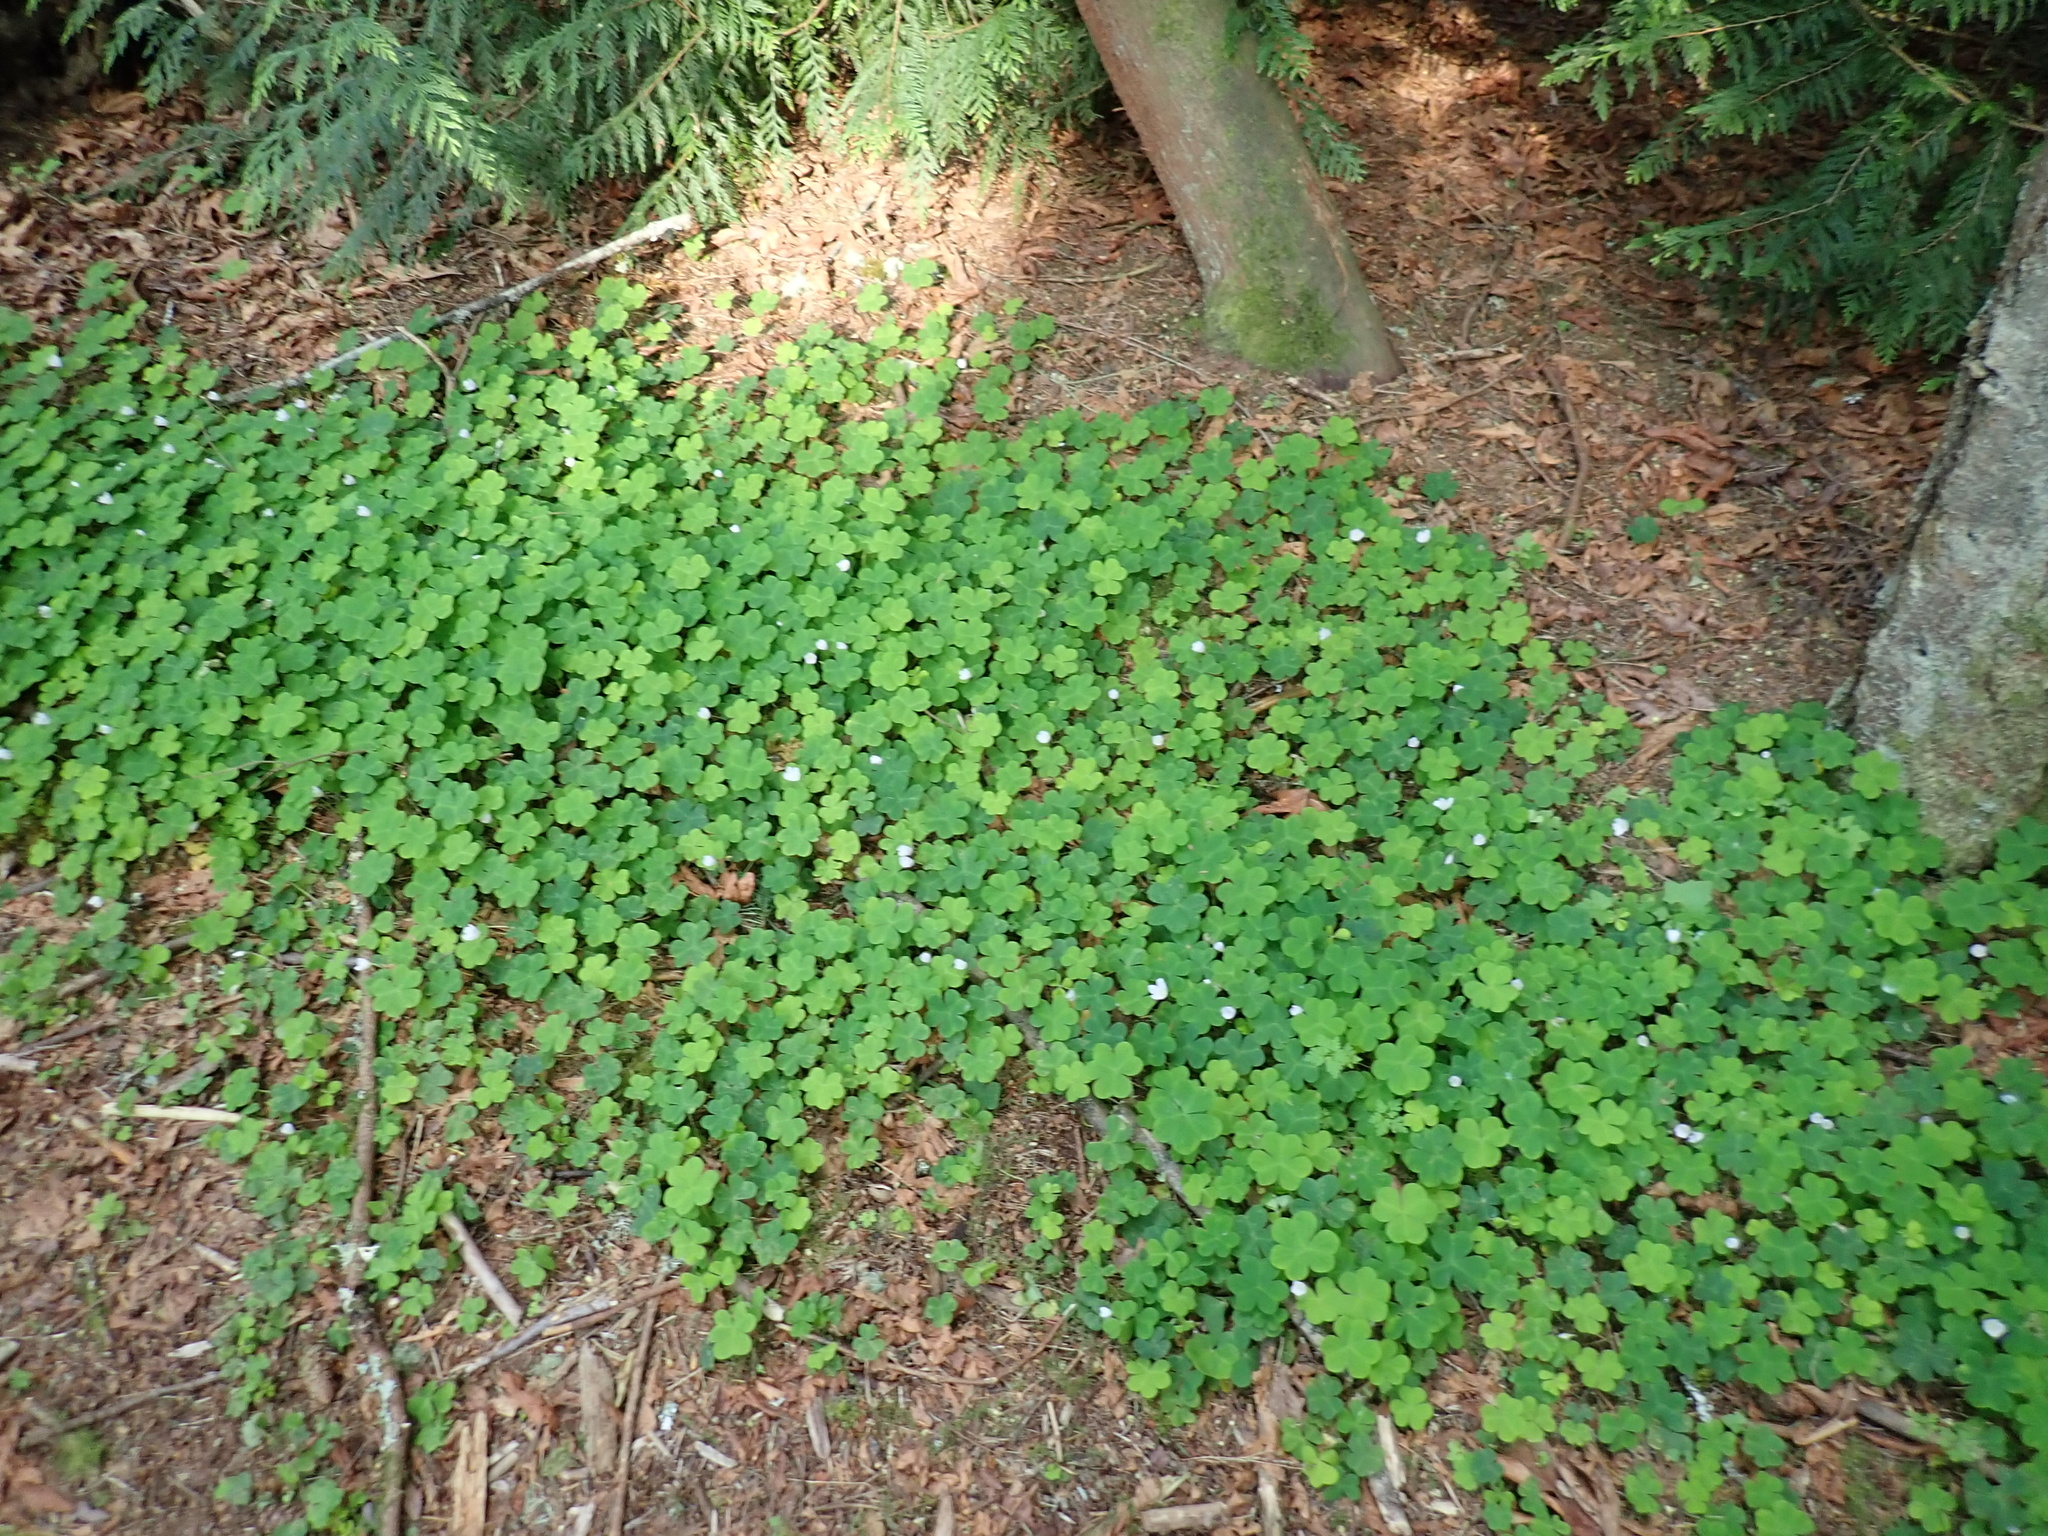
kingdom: Plantae
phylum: Tracheophyta
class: Magnoliopsida
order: Oxalidales
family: Oxalidaceae
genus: Oxalis
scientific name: Oxalis oregana
